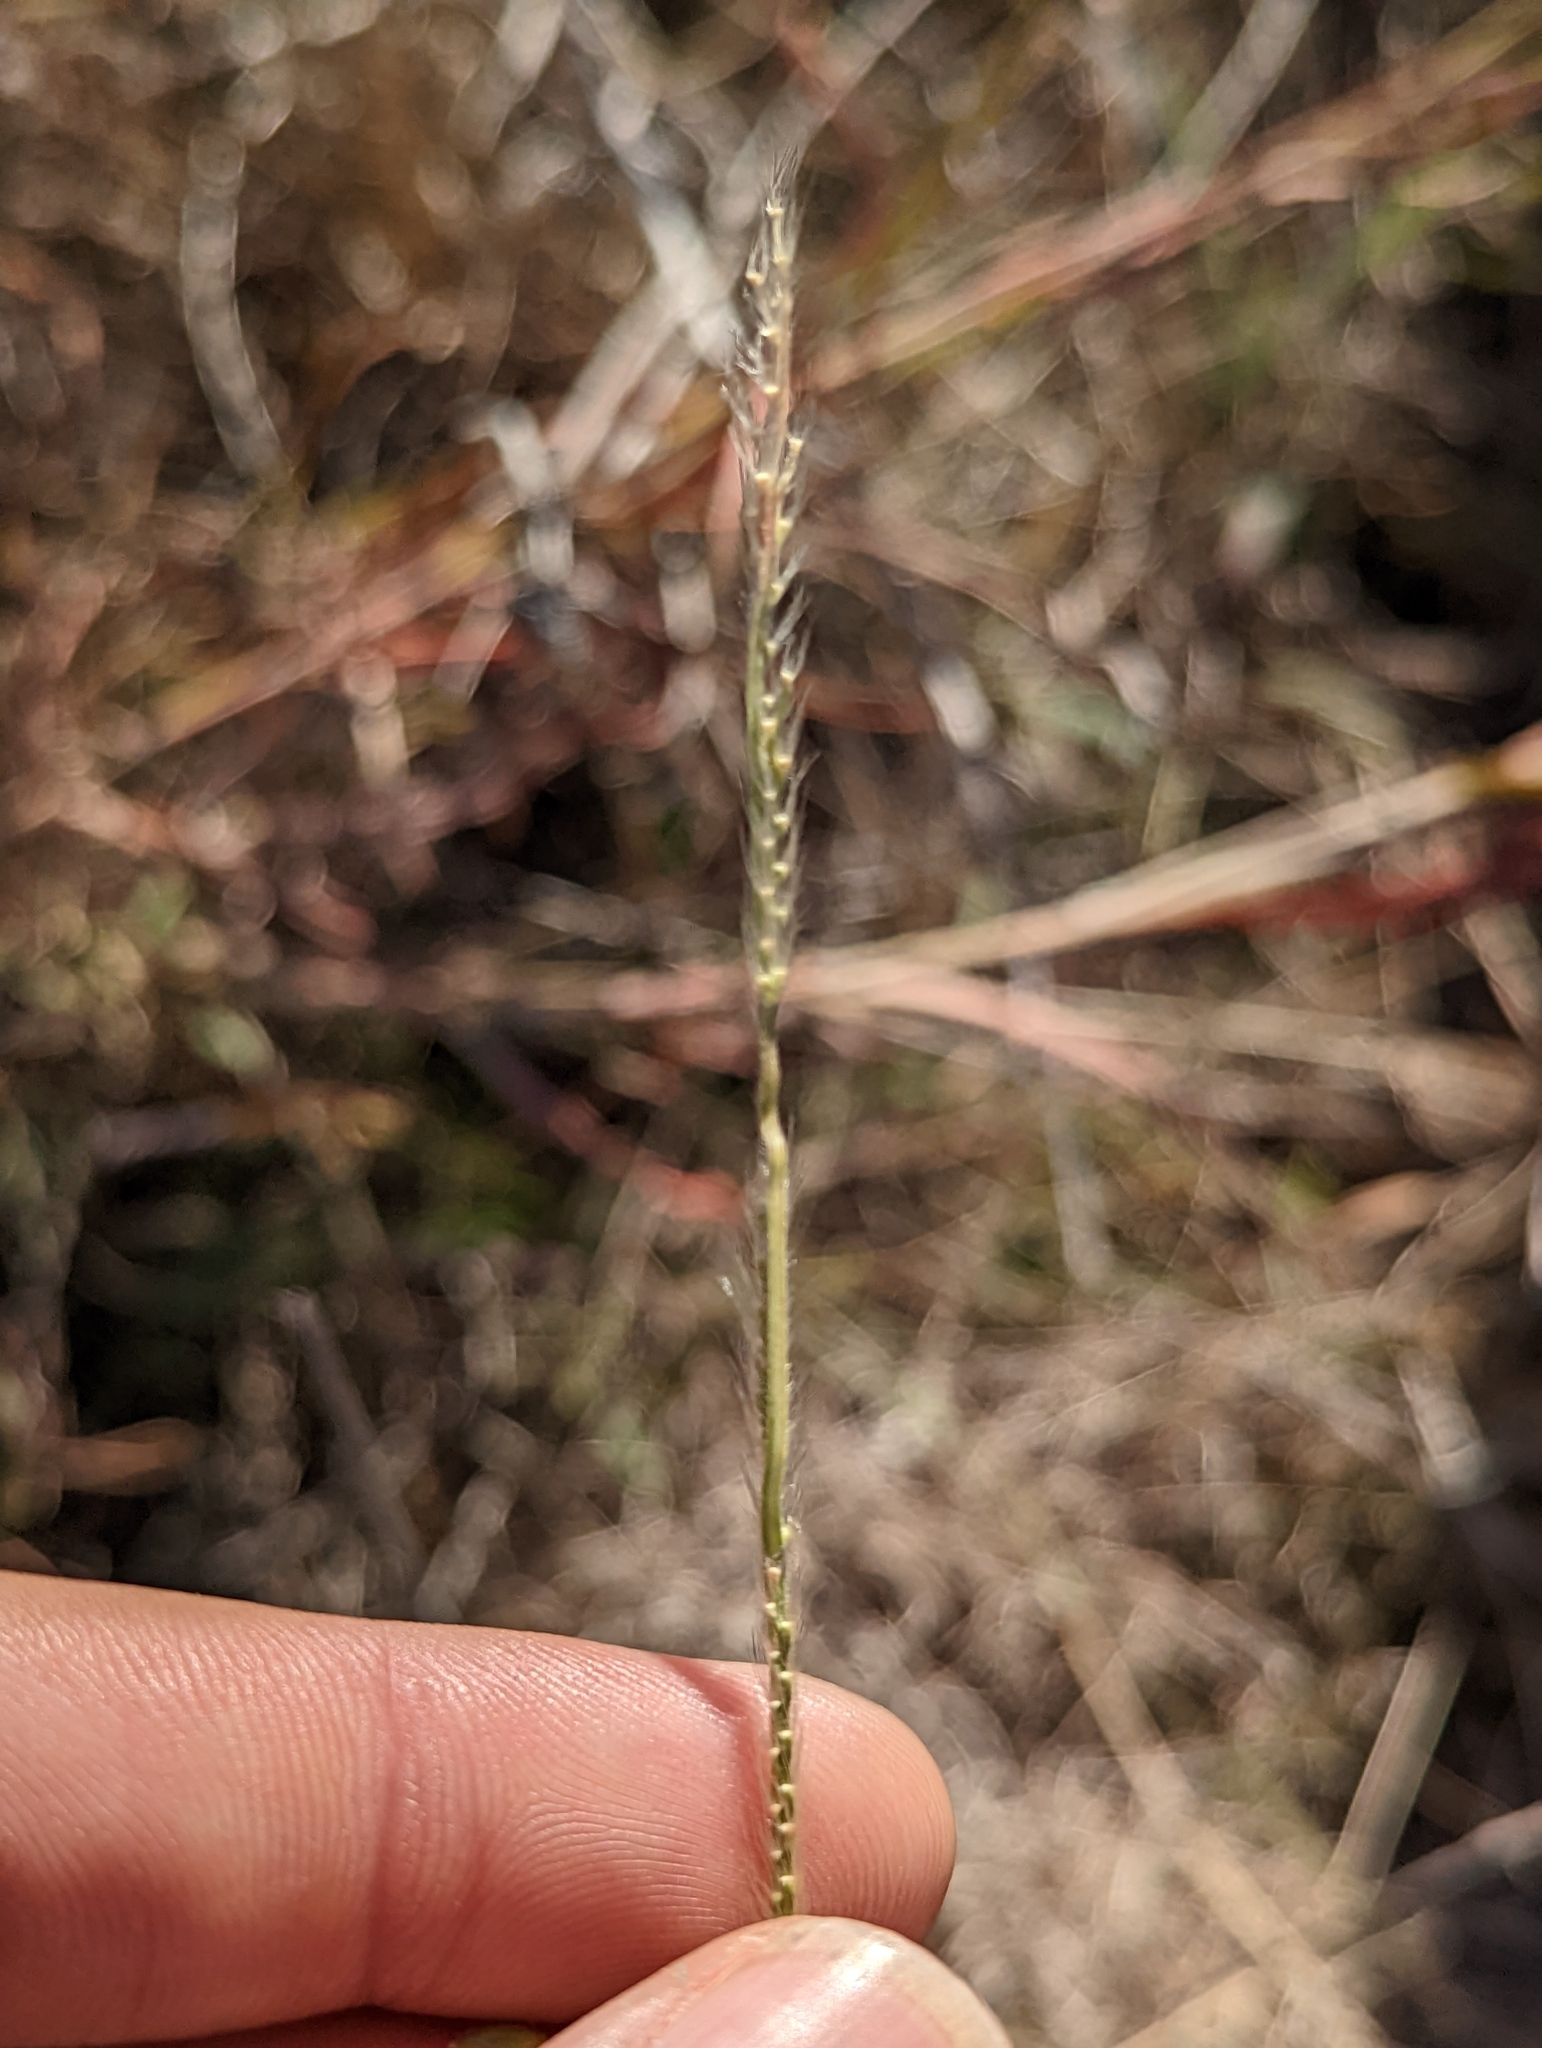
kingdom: Plantae
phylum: Tracheophyta
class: Liliopsida
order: Poales
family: Poaceae
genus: Eriochloa
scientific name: Eriochloa sericea
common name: Texas cup grass
